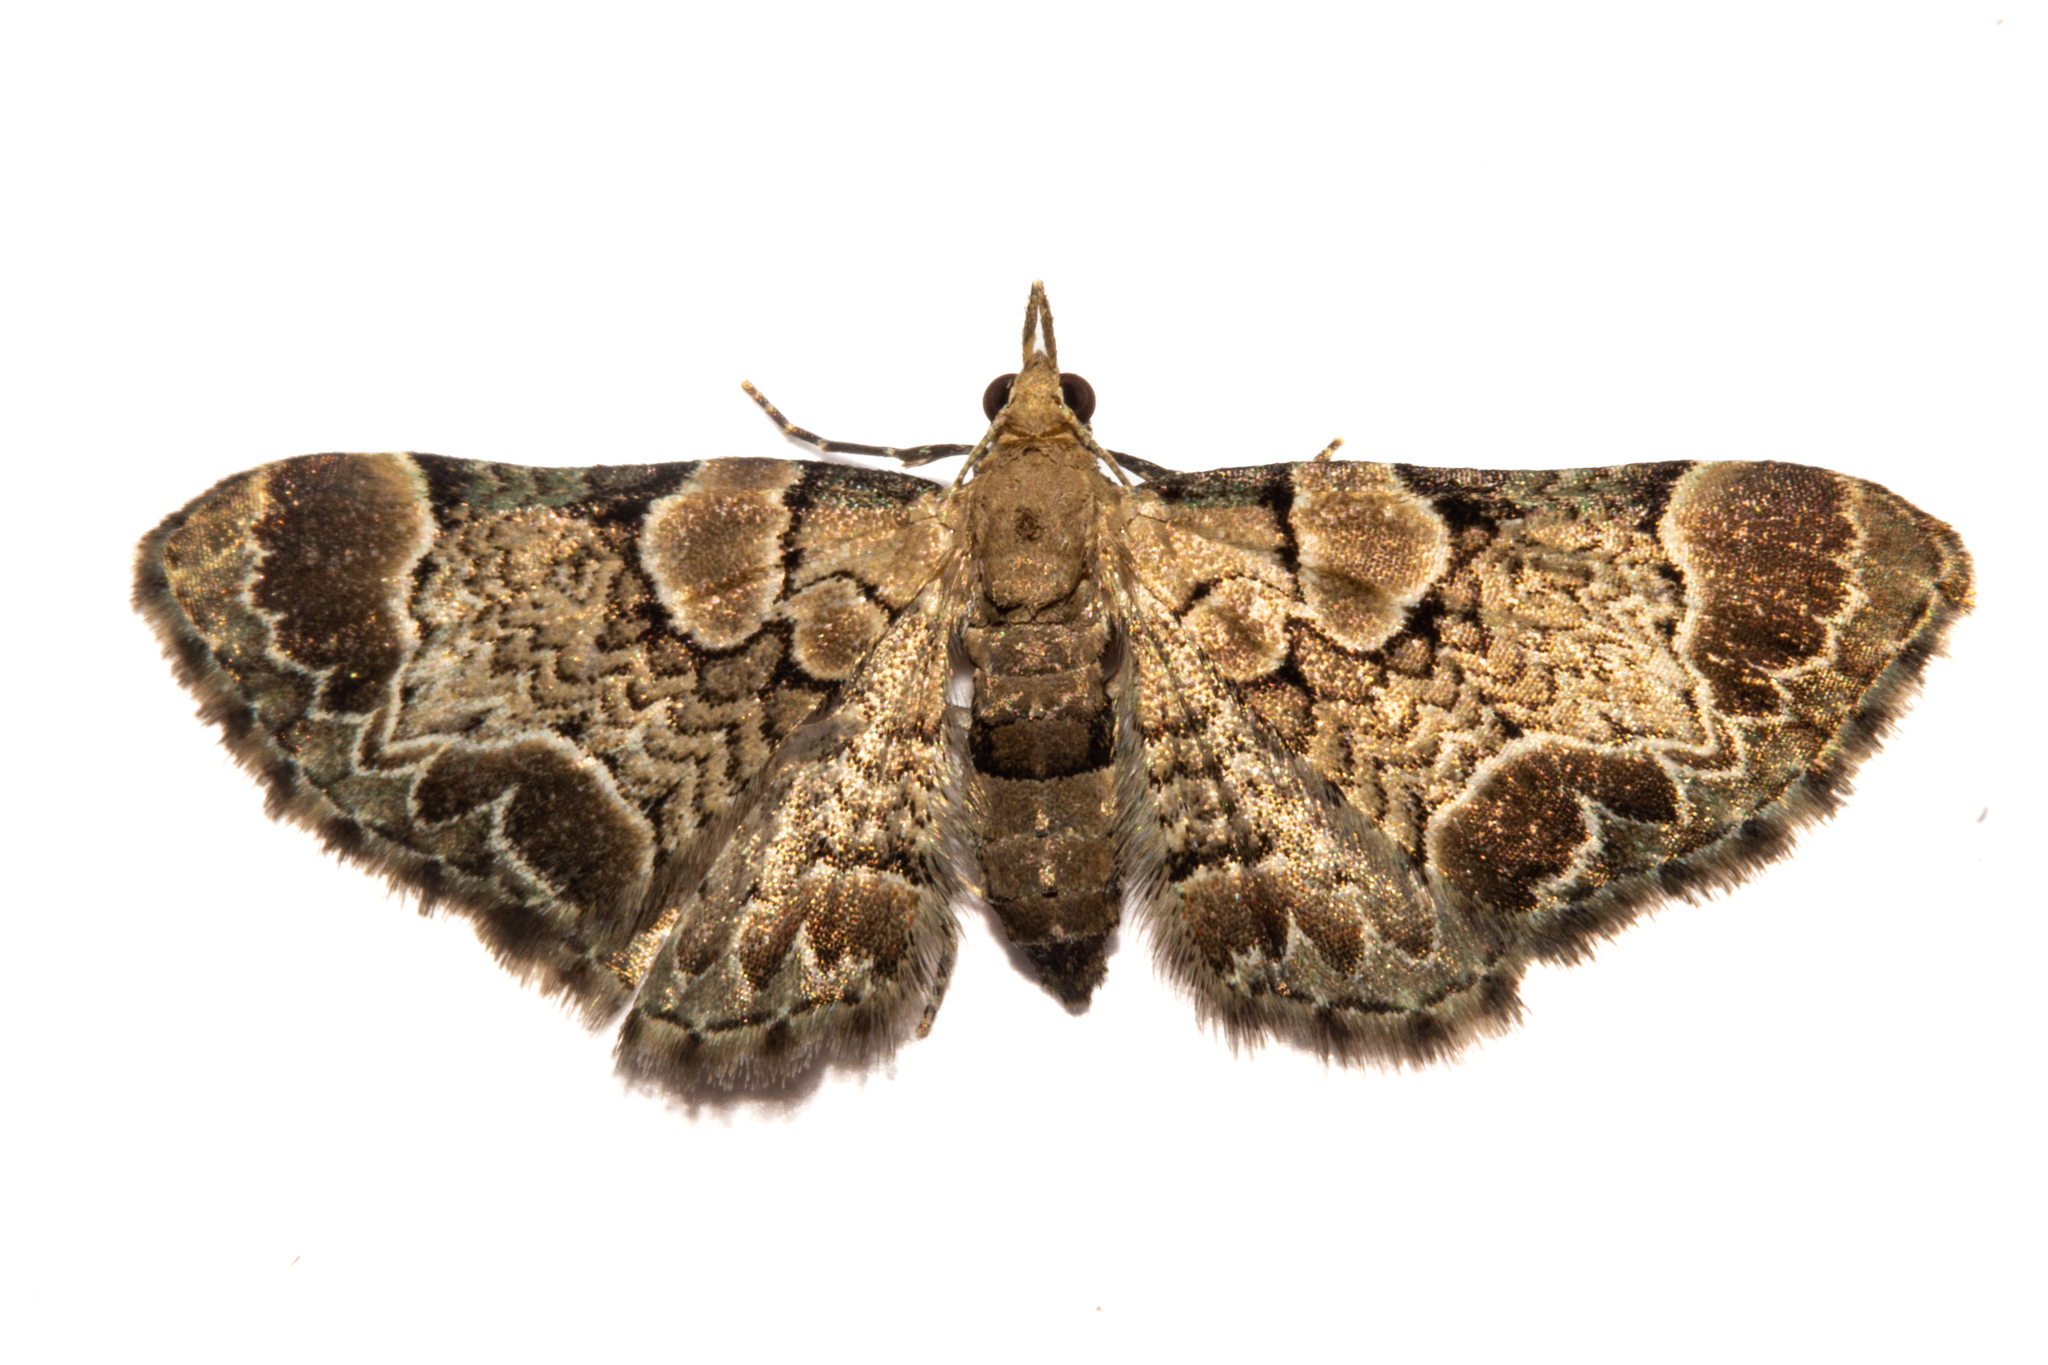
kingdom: Animalia
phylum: Arthropoda
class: Insecta
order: Lepidoptera
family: Geometridae
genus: Chloroclystis
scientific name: Chloroclystis
